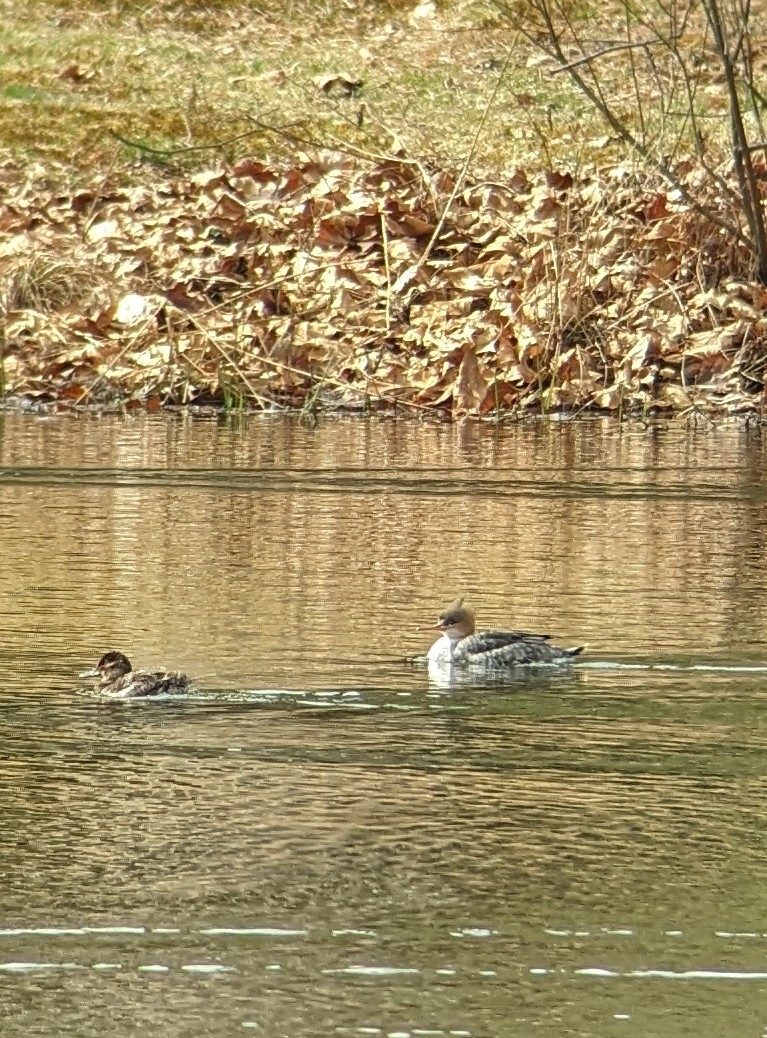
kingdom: Animalia
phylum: Chordata
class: Aves
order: Anseriformes
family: Anatidae
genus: Mergus
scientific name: Mergus serrator
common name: Red-breasted merganser
